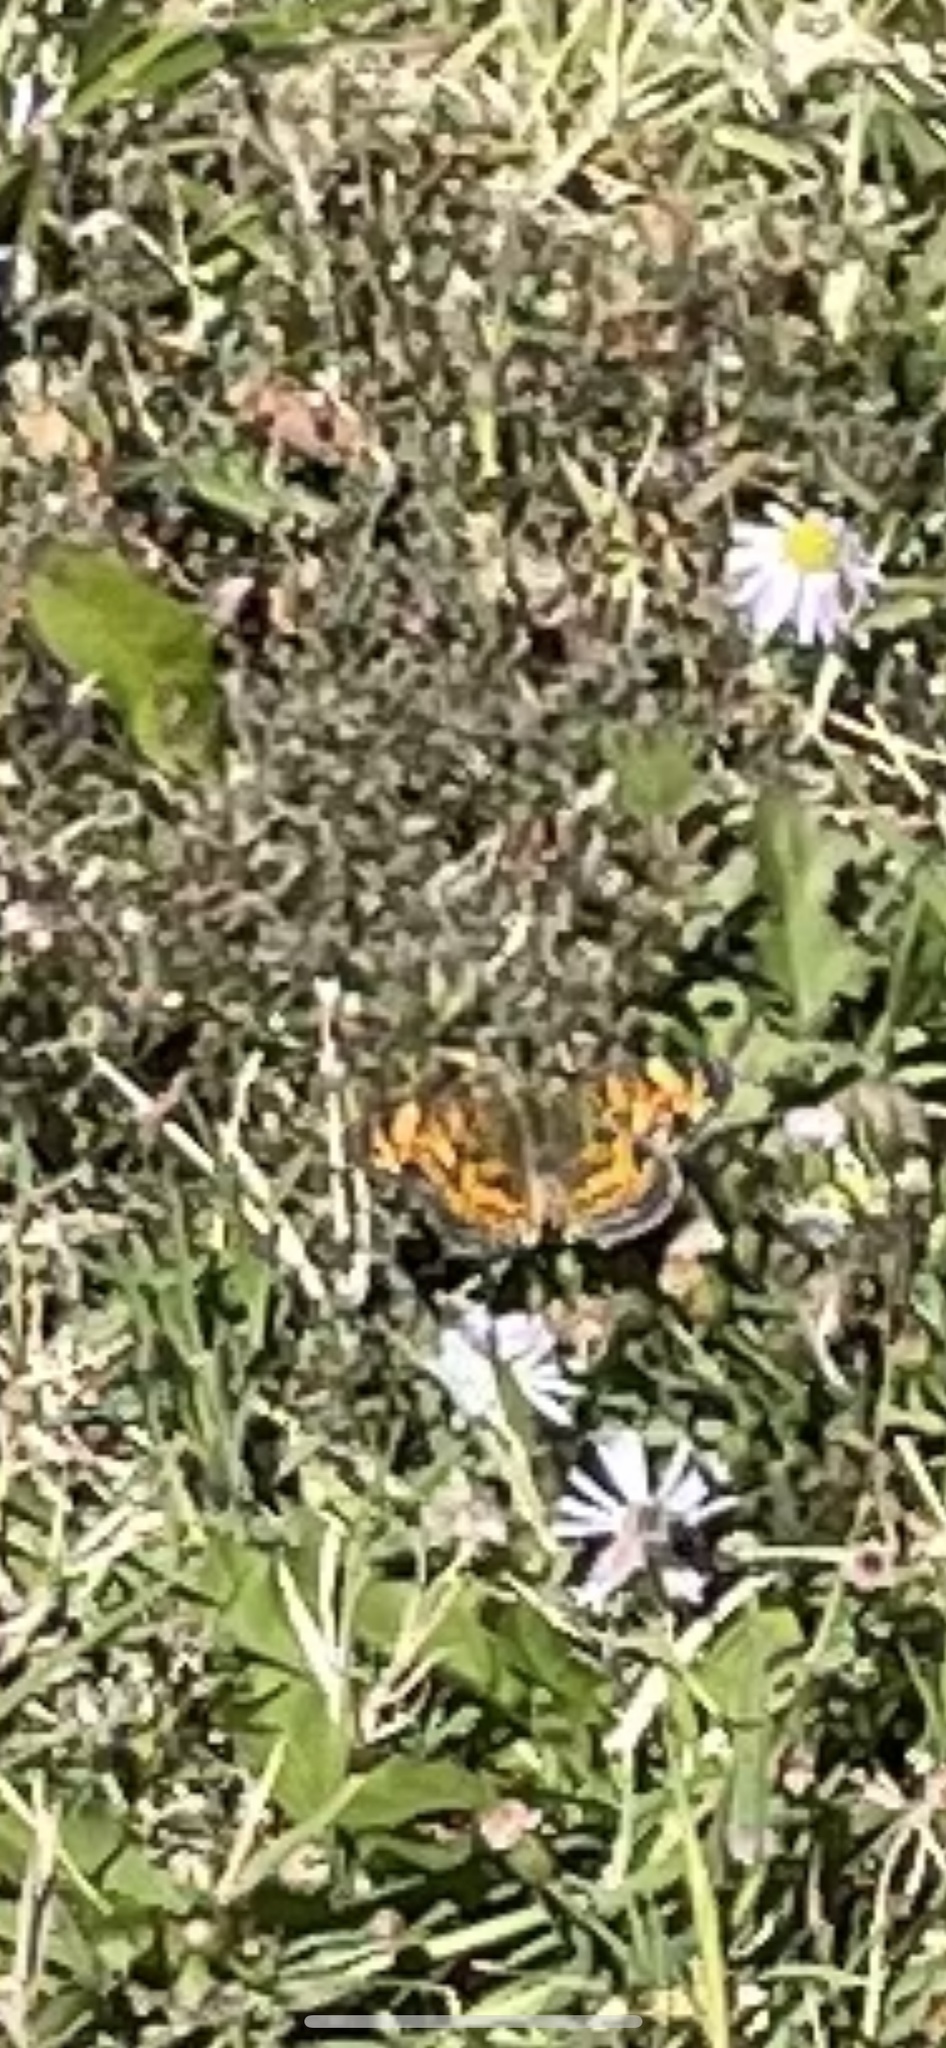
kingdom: Animalia
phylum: Arthropoda
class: Insecta
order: Lepidoptera
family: Nymphalidae
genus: Phyciodes
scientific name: Phyciodes tharos
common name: Pearl crescent
